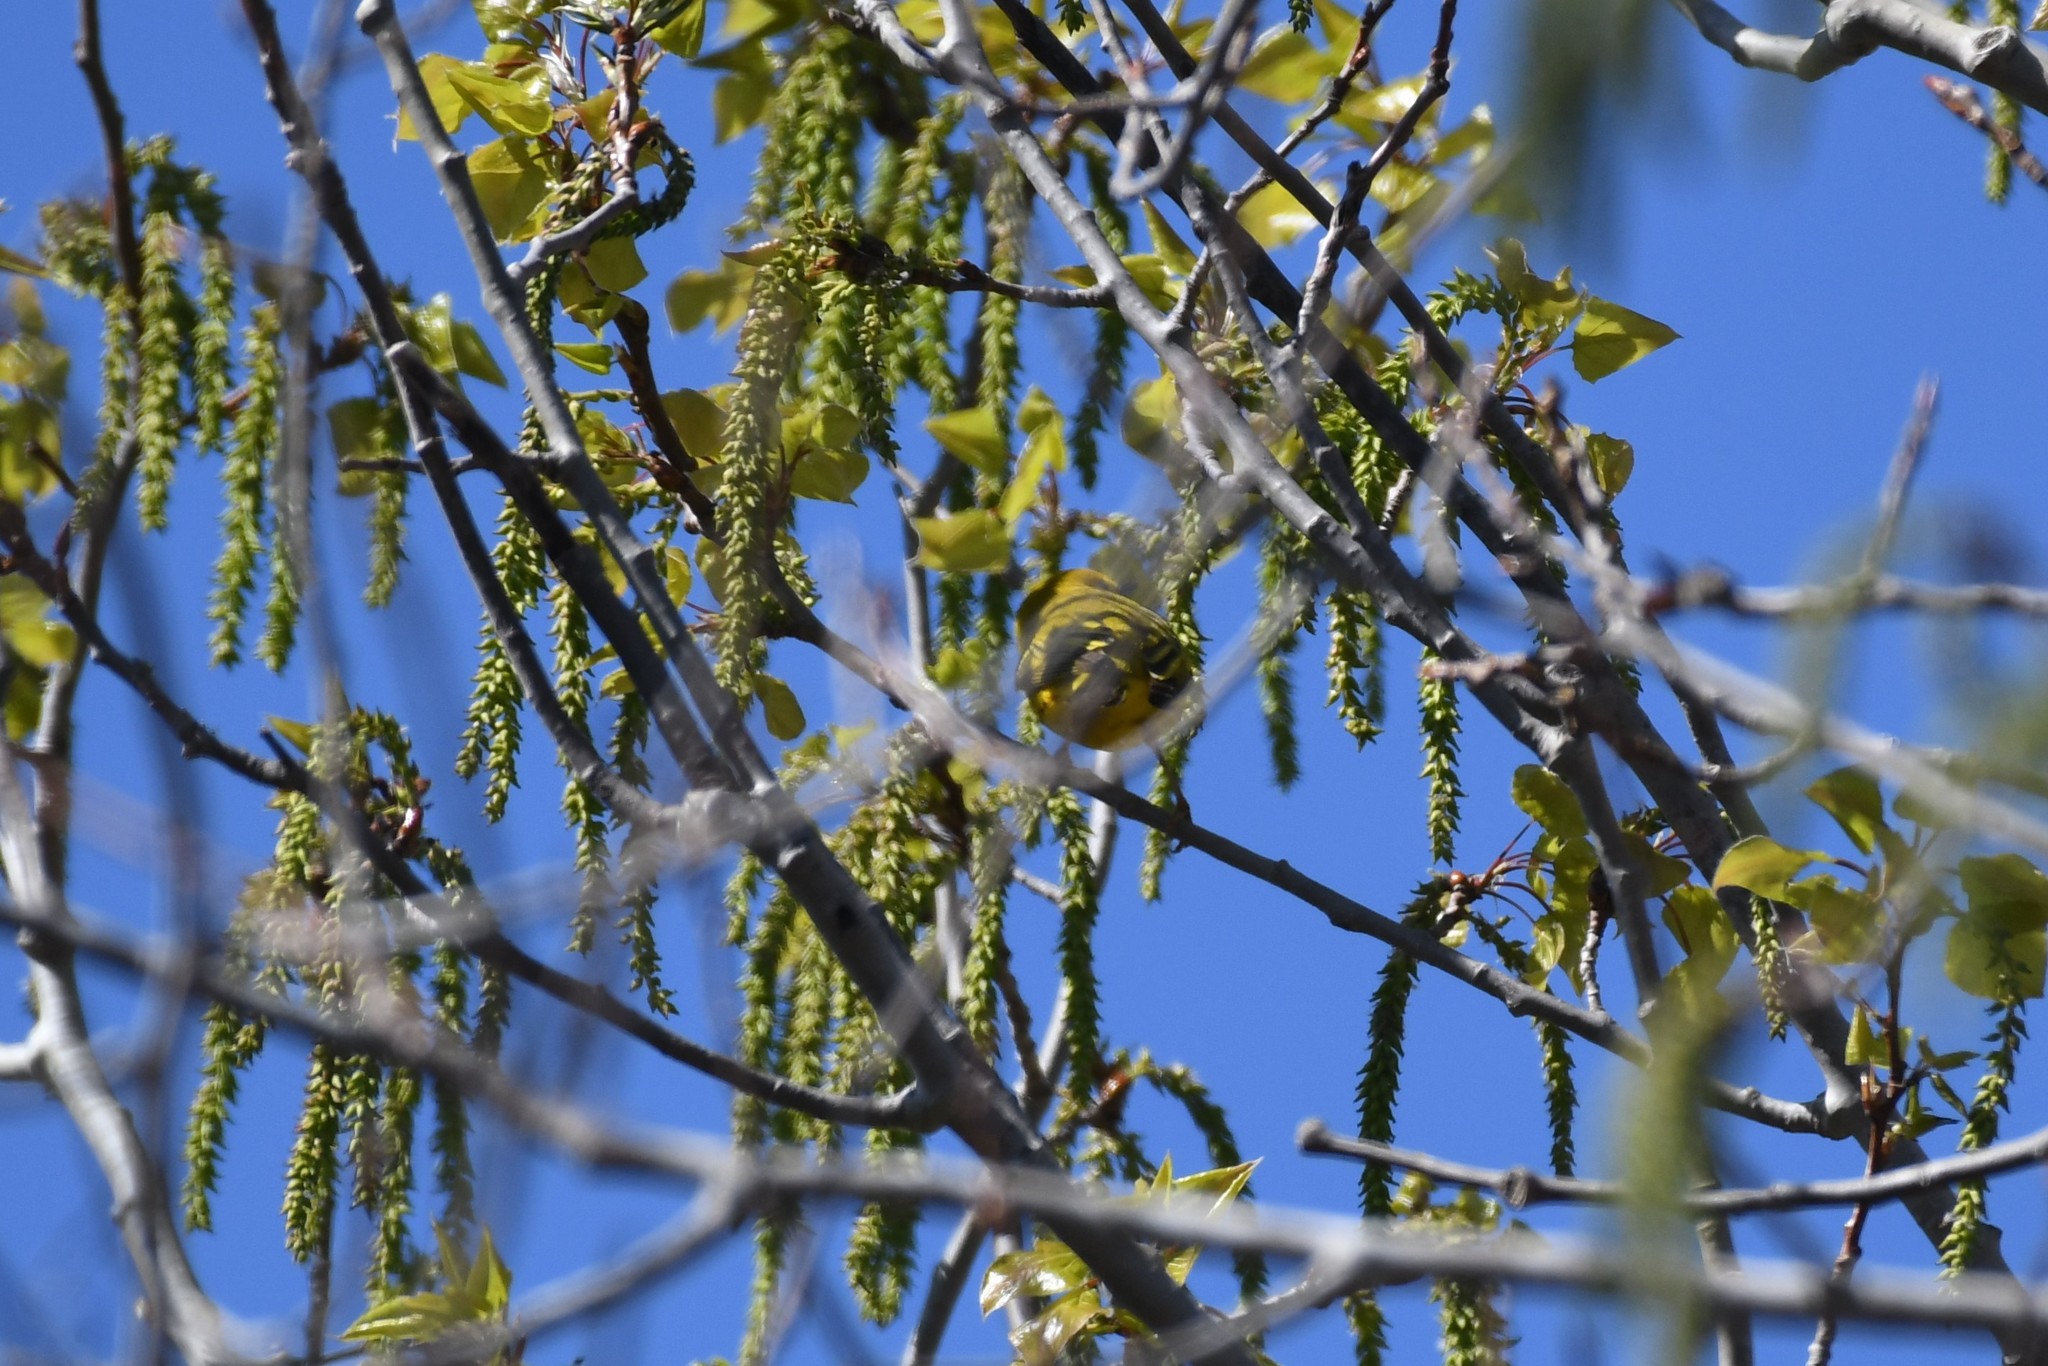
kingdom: Animalia
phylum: Chordata
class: Aves
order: Passeriformes
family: Parulidae
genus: Setophaga
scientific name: Setophaga petechia
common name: Yellow warbler
